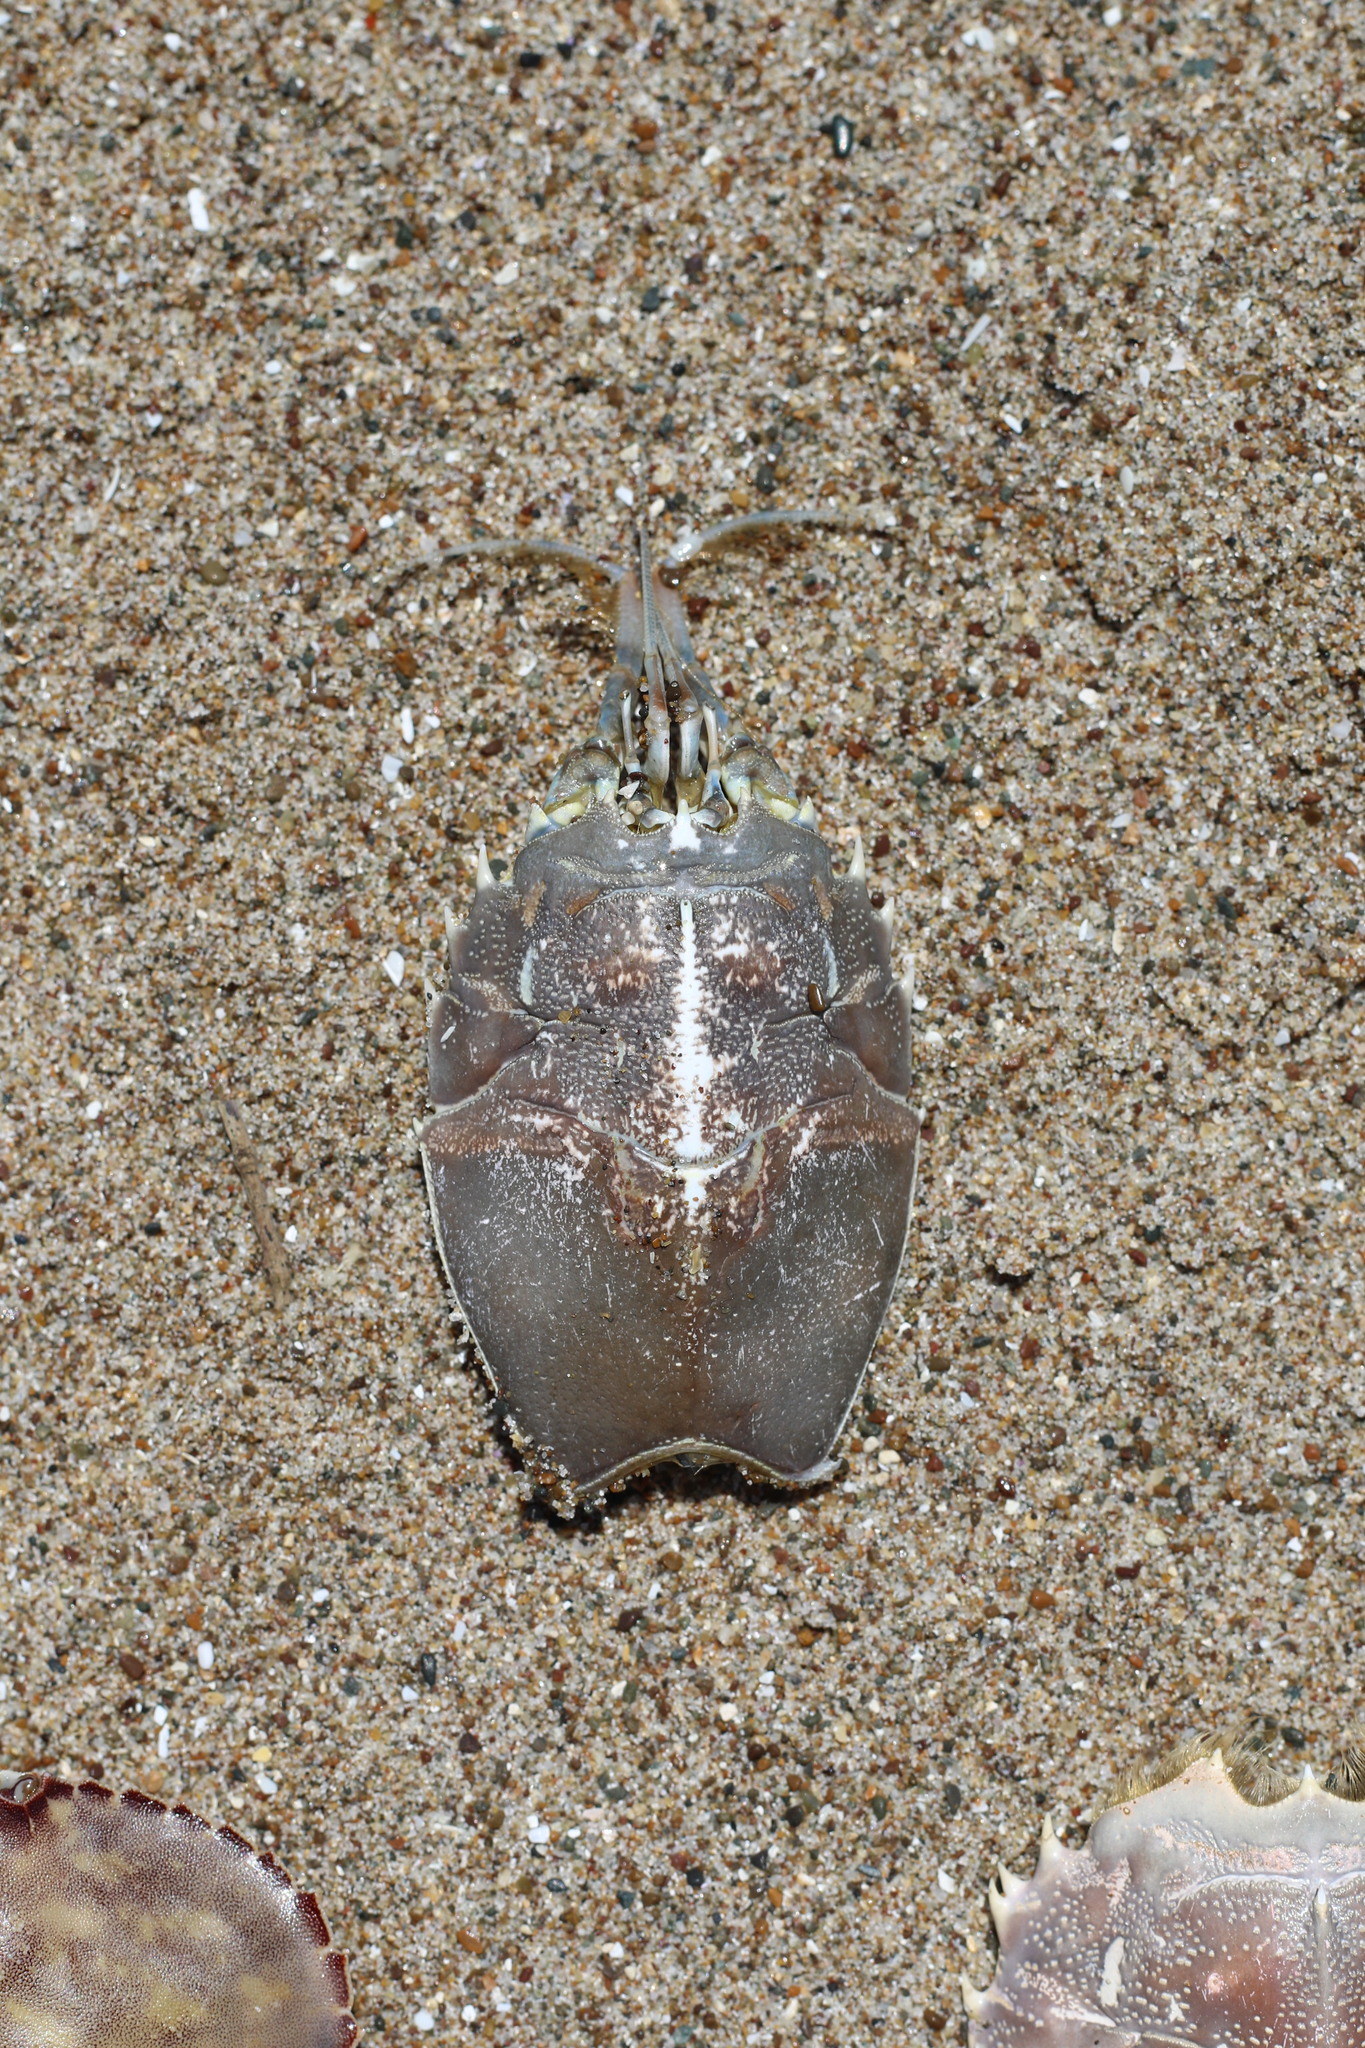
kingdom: Animalia
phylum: Arthropoda
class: Malacostraca
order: Decapoda
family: Blepharipodidae
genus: Blepharipoda
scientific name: Blepharipoda occidentalis
